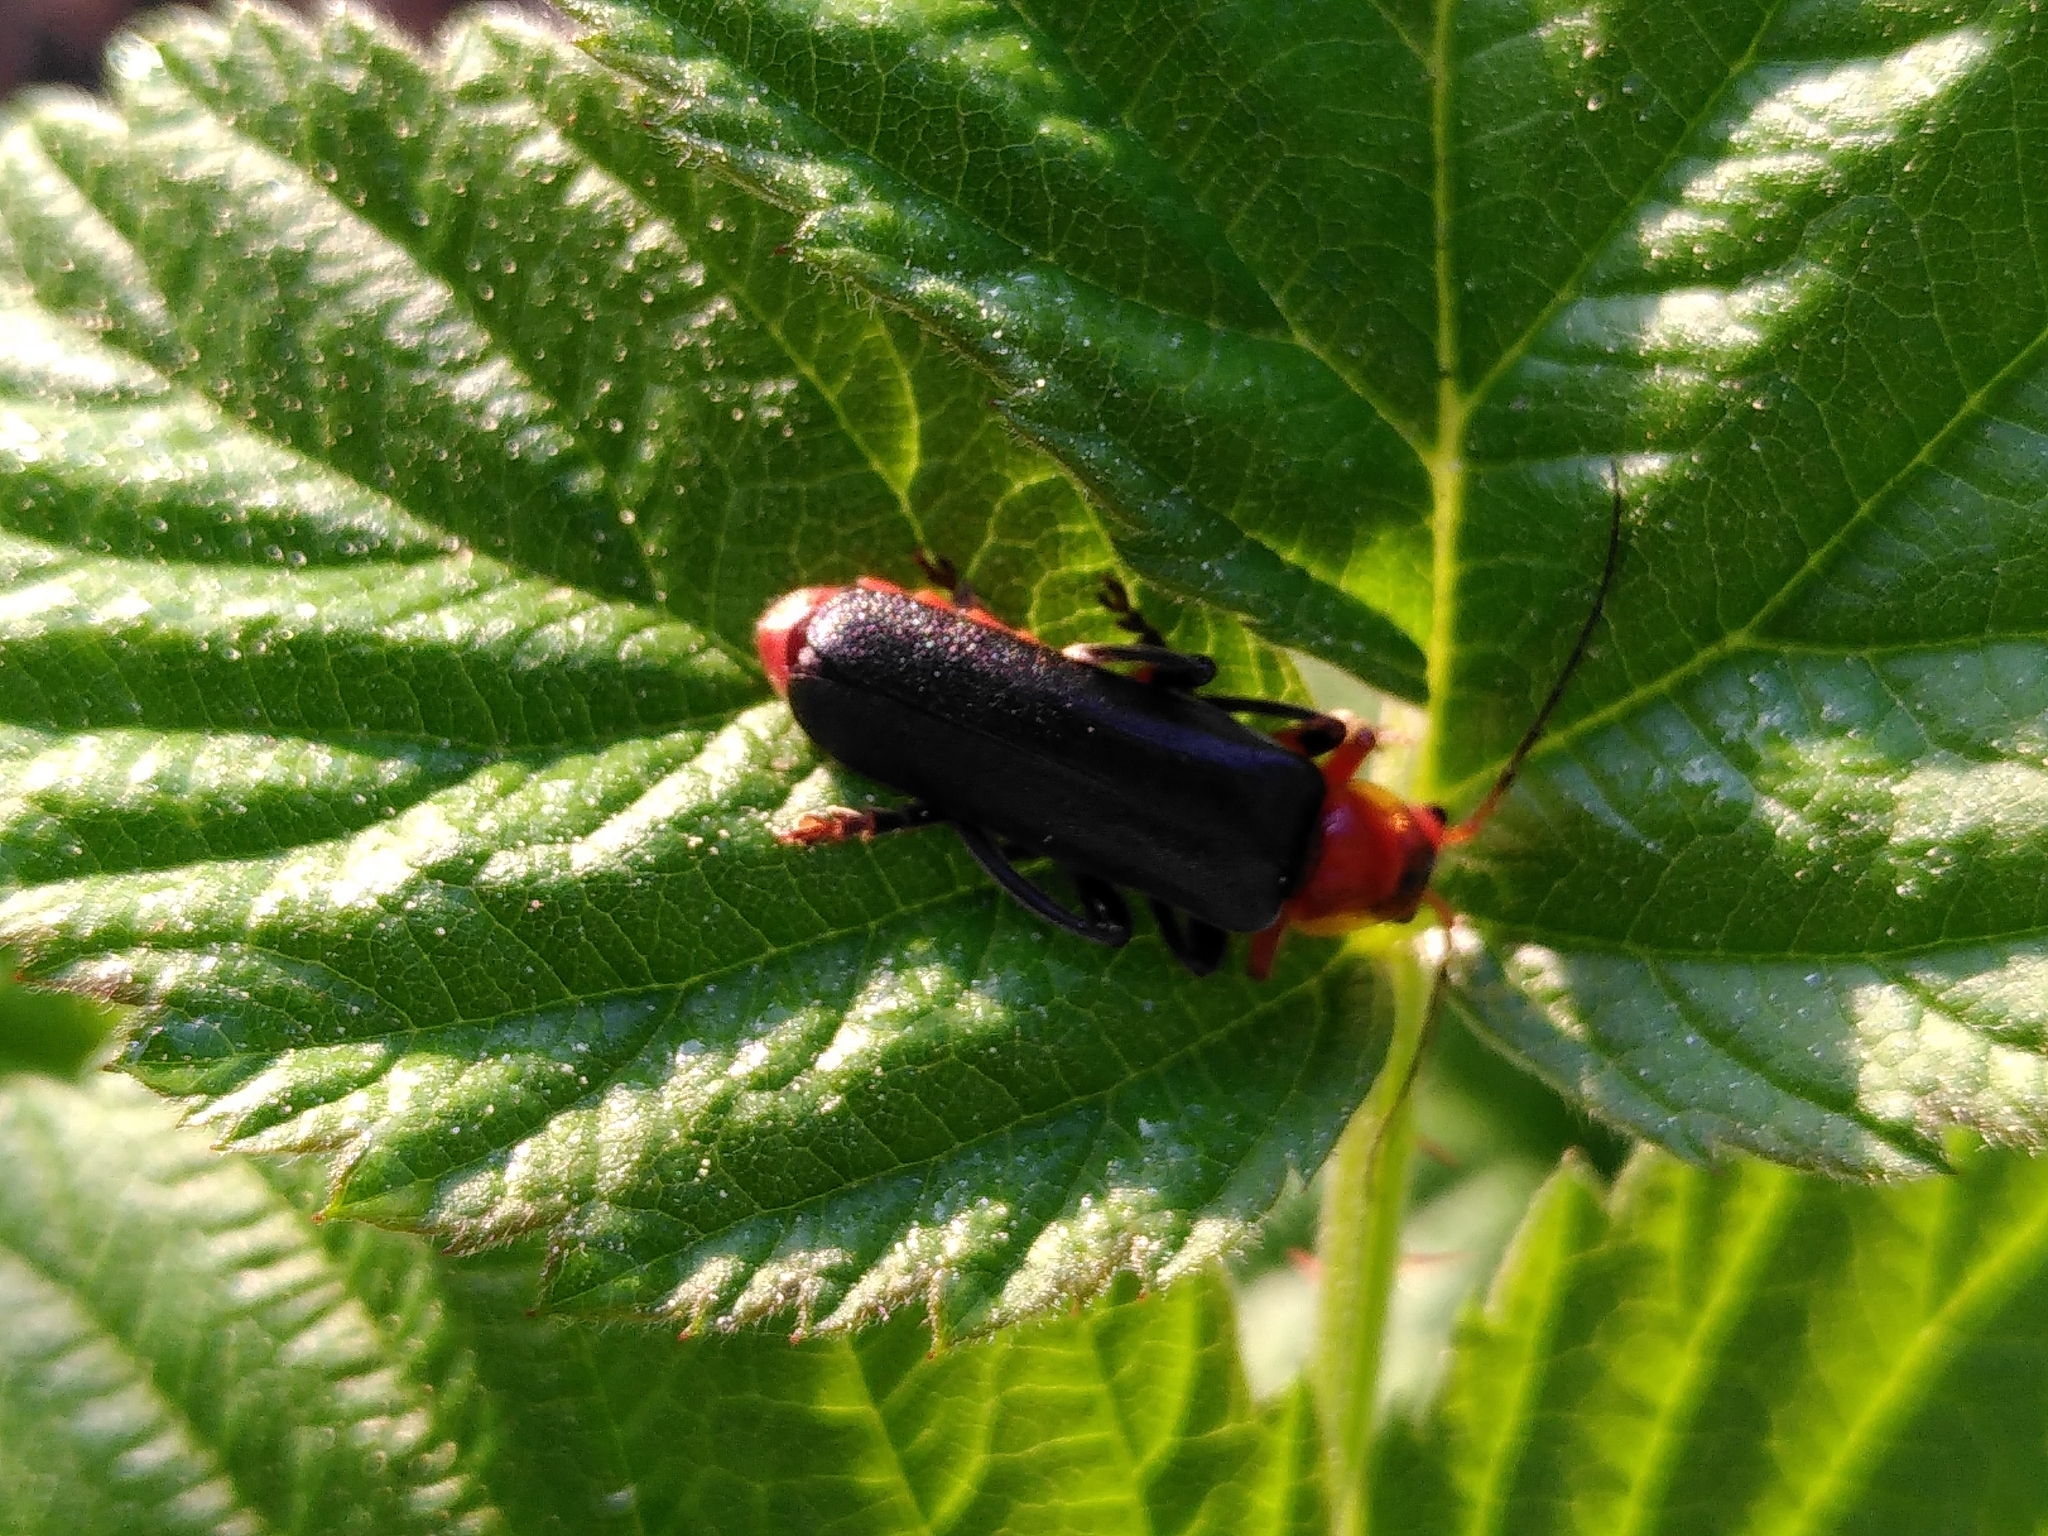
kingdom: Animalia
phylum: Arthropoda
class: Insecta
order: Coleoptera
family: Cantharidae
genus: Cantharis
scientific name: Cantharis livida
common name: Livid soldier beetle
